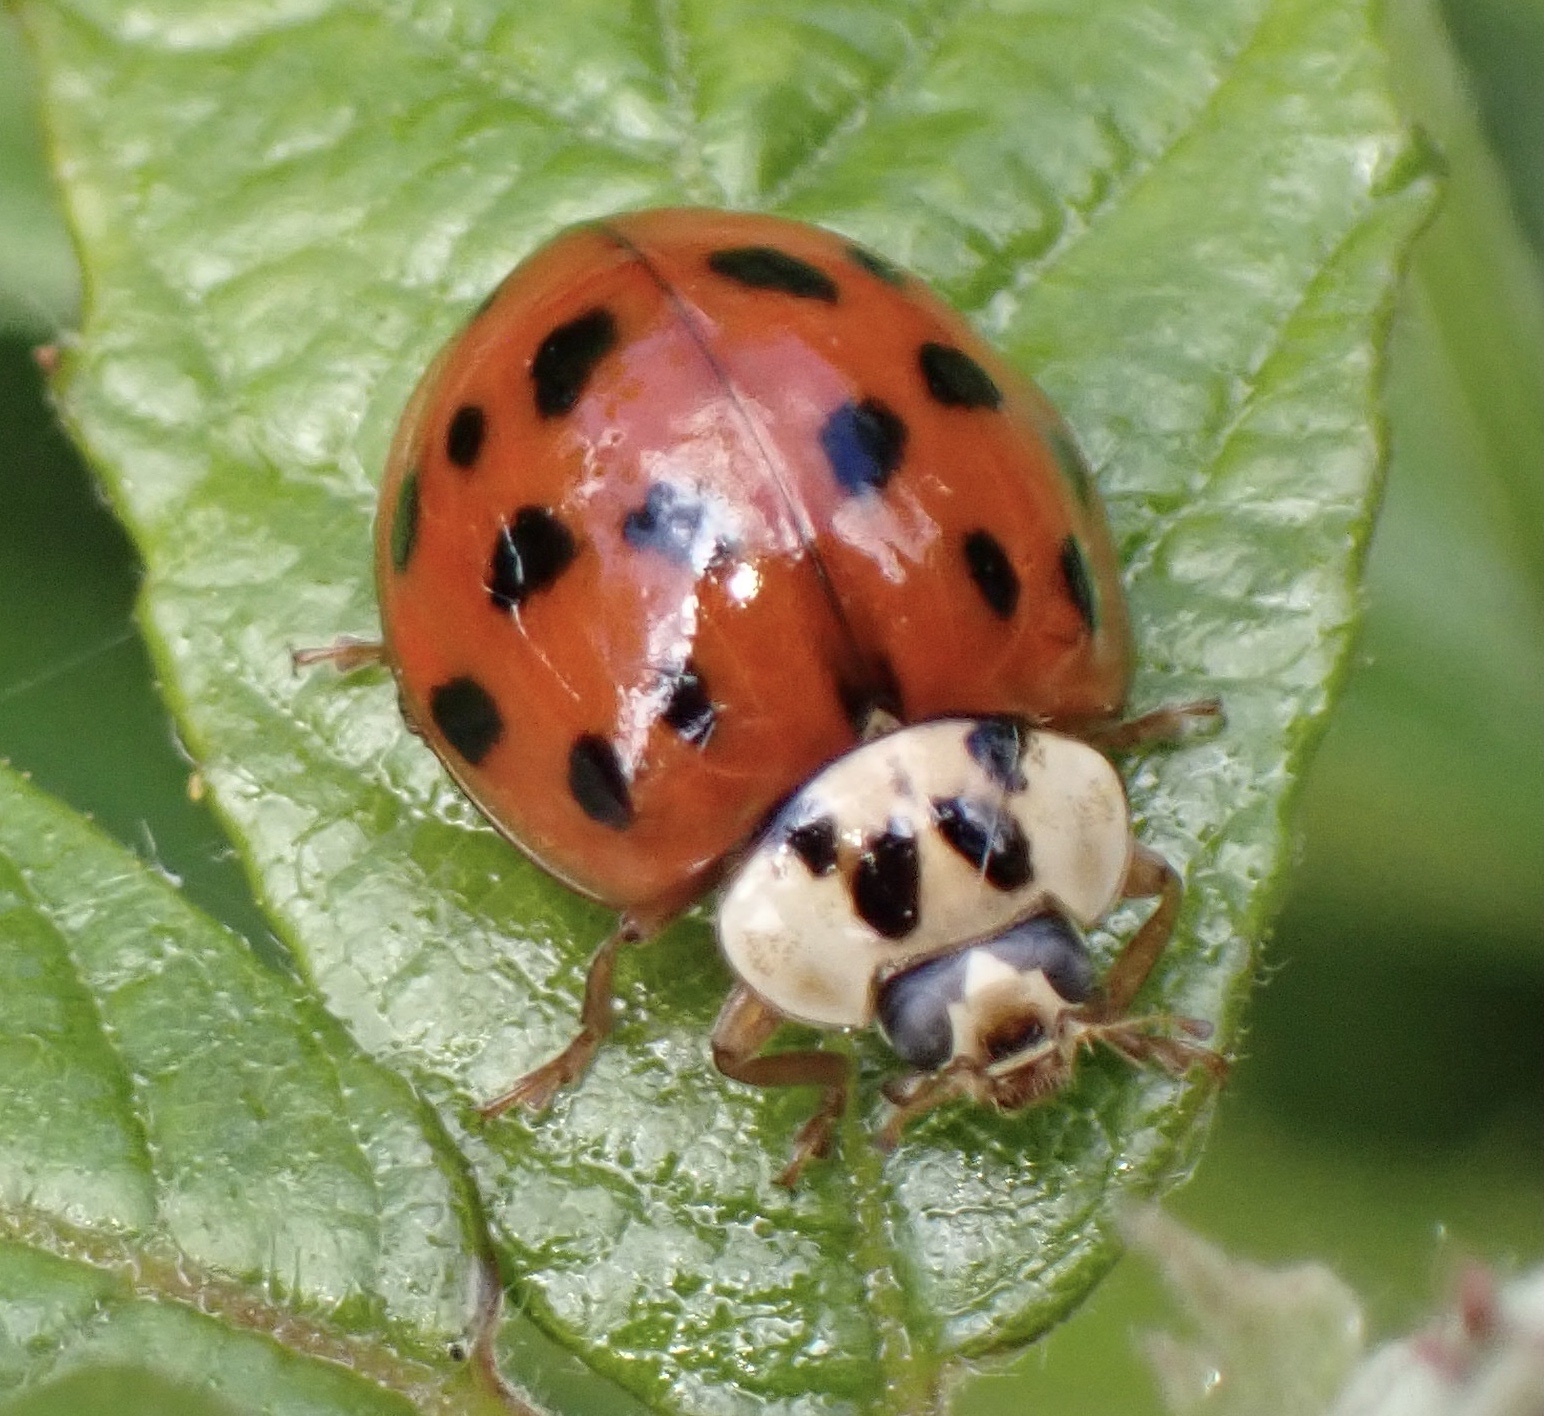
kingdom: Animalia
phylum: Arthropoda
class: Insecta
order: Coleoptera
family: Coccinellidae
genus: Harmonia
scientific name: Harmonia axyridis
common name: Harlequin ladybird
